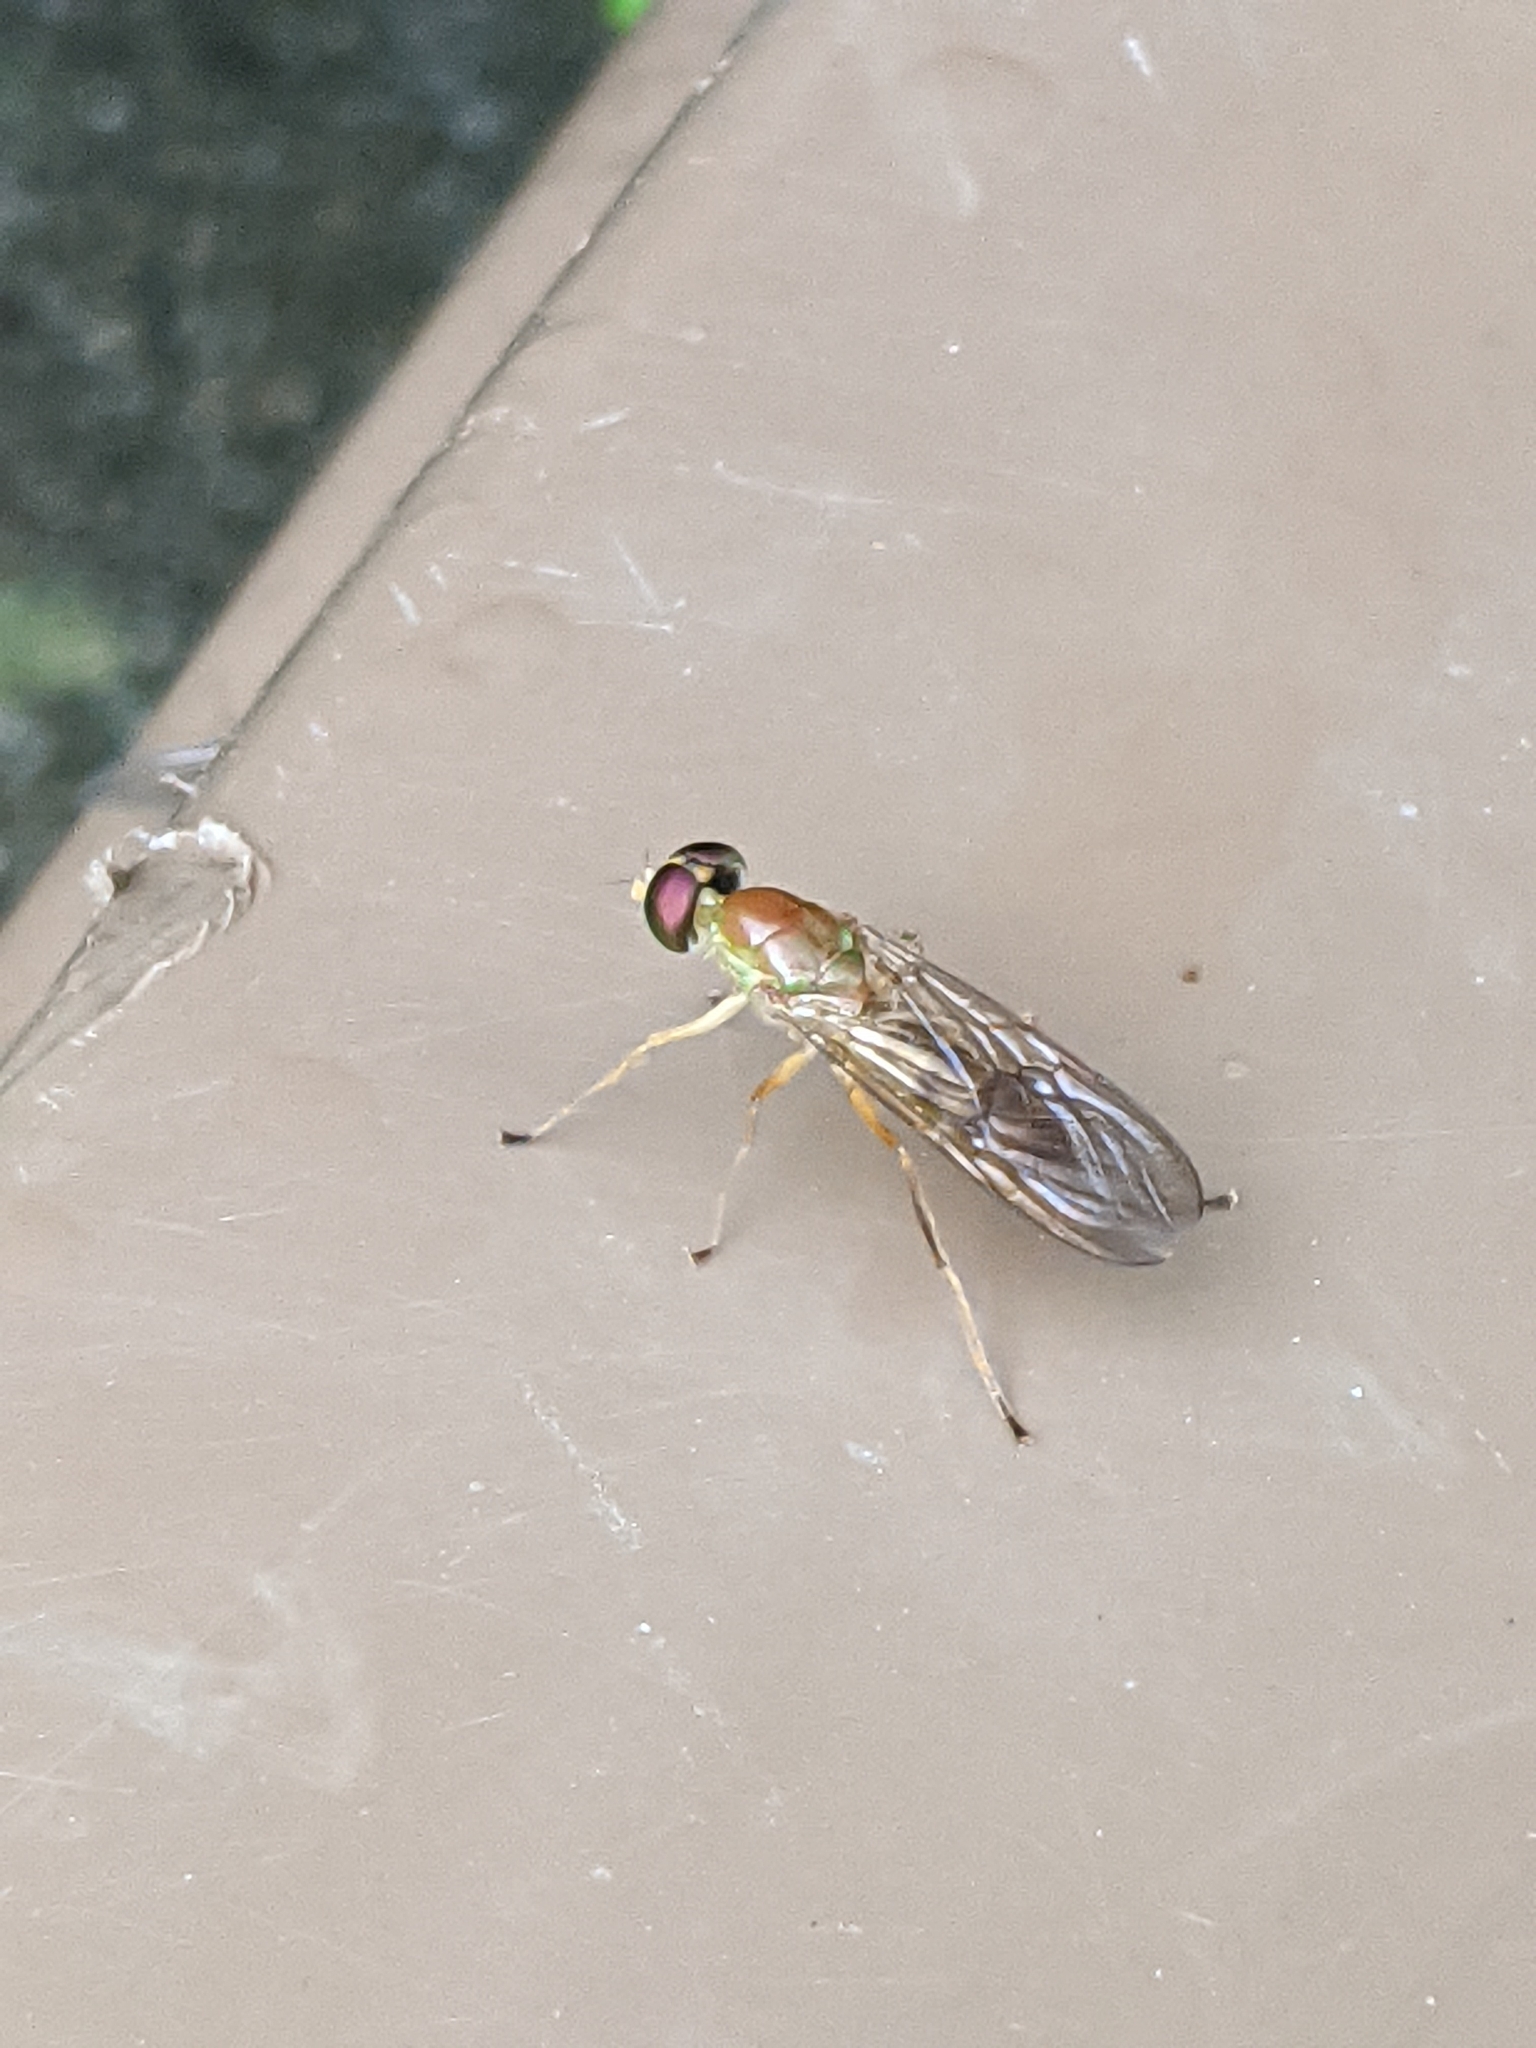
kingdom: Animalia
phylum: Arthropoda
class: Insecta
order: Diptera
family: Stratiomyidae
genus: Ptecticus
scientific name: Ptecticus trivittatus
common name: Compost fly
